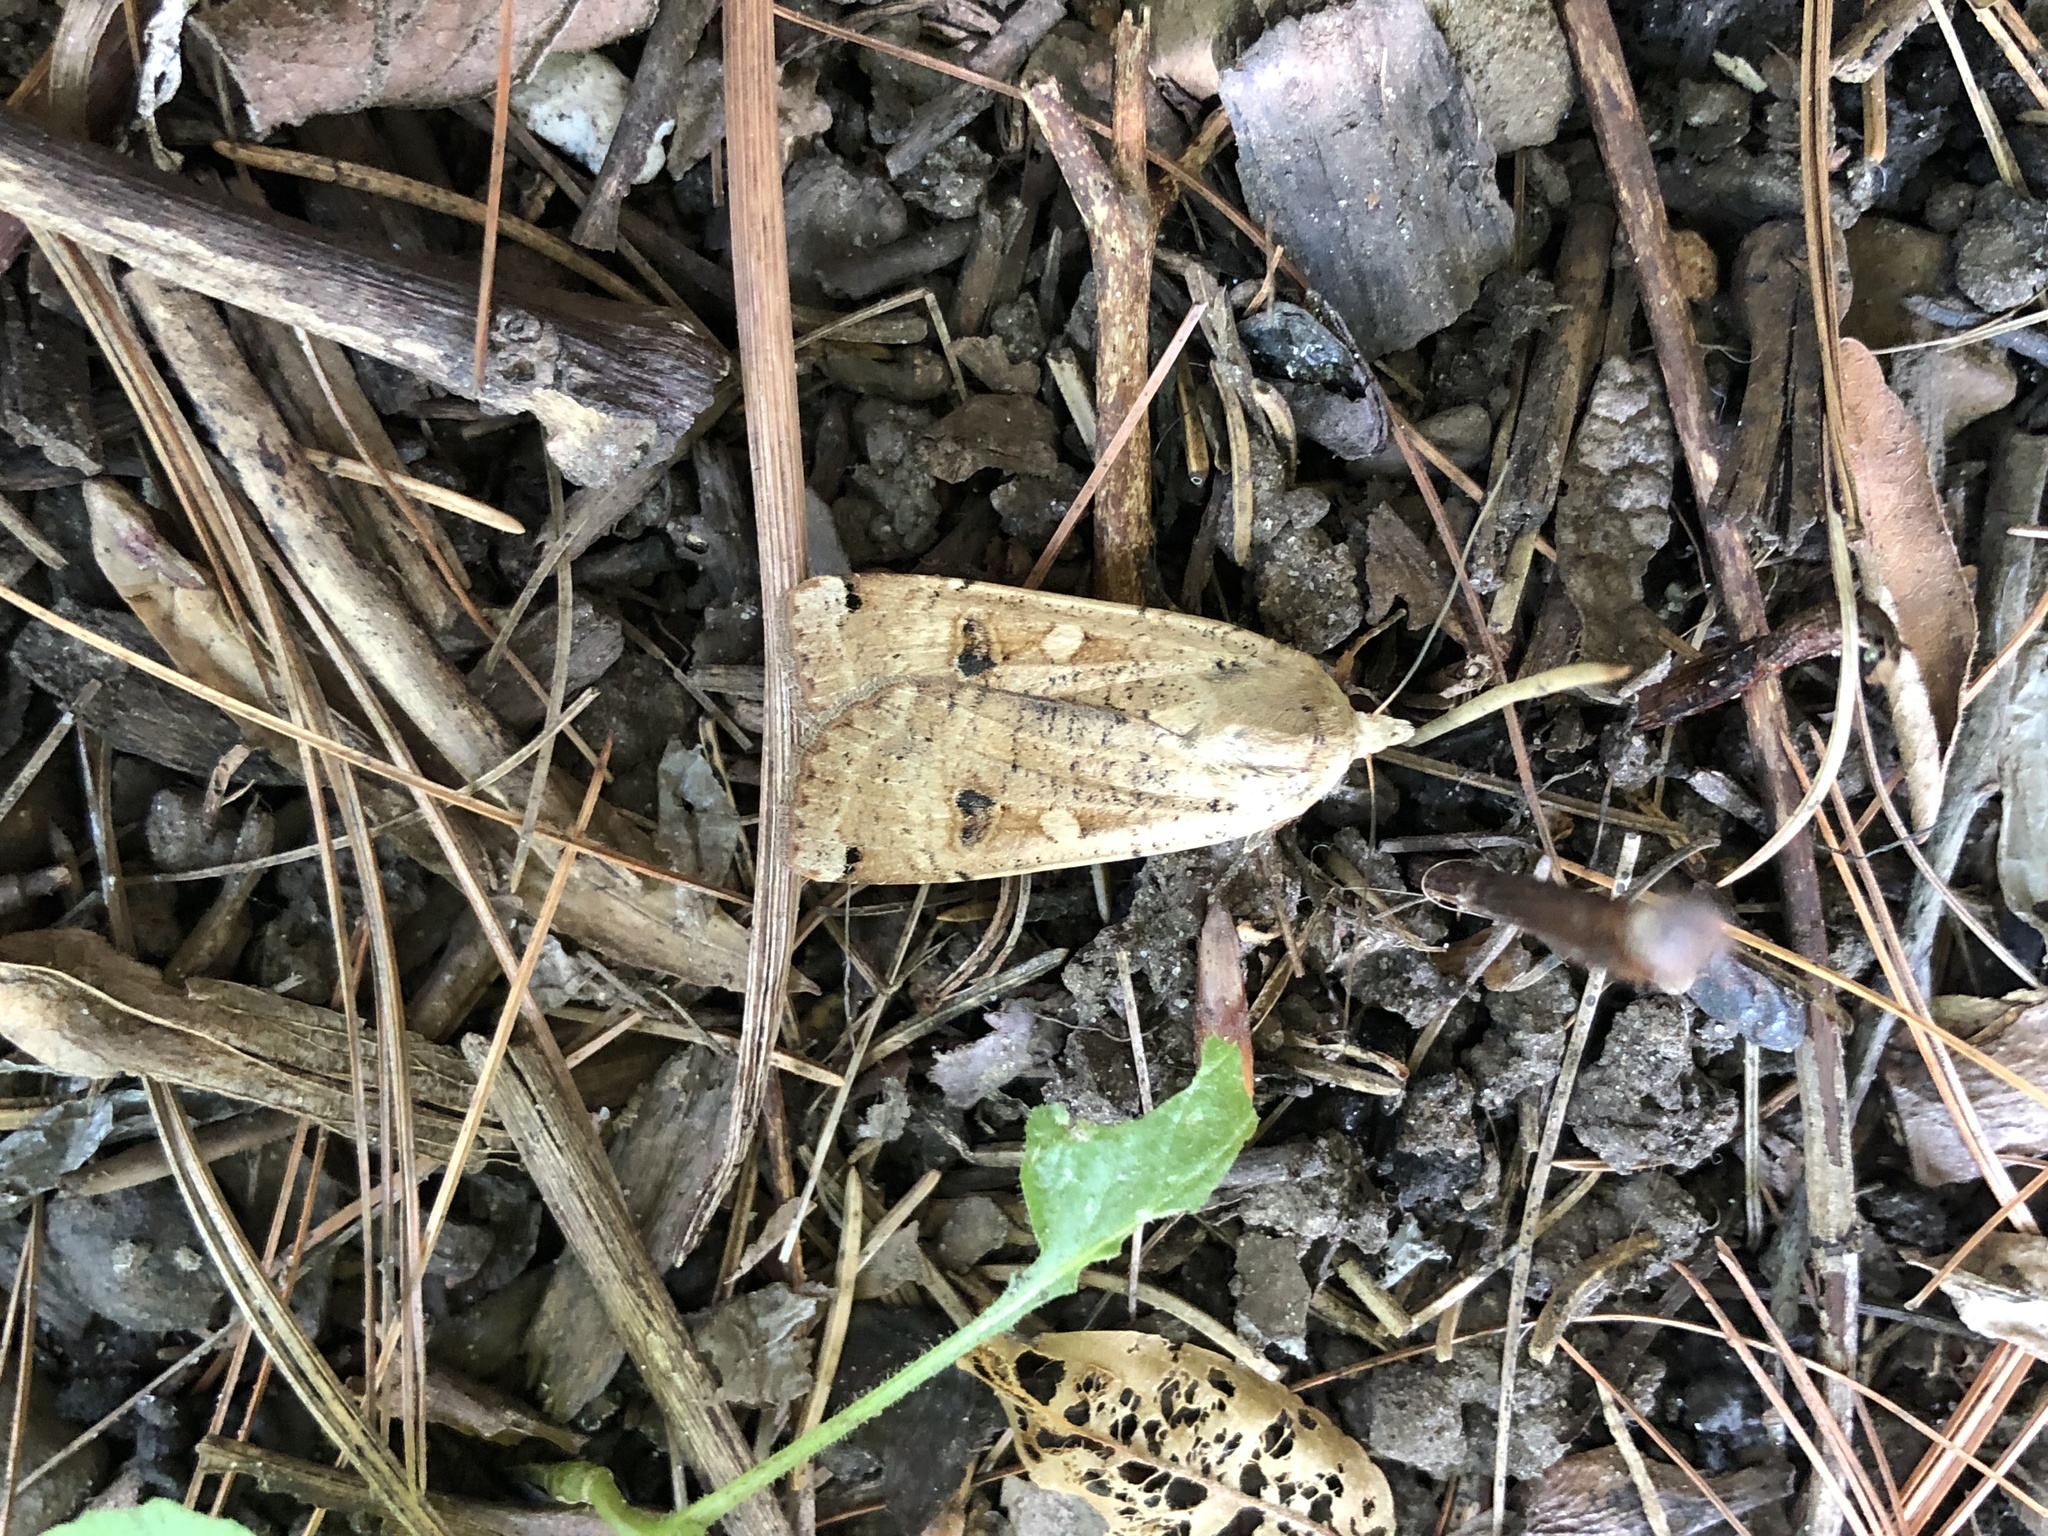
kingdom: Animalia
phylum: Arthropoda
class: Insecta
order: Lepidoptera
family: Noctuidae
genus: Noctua
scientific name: Noctua pronuba
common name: Large yellow underwing
